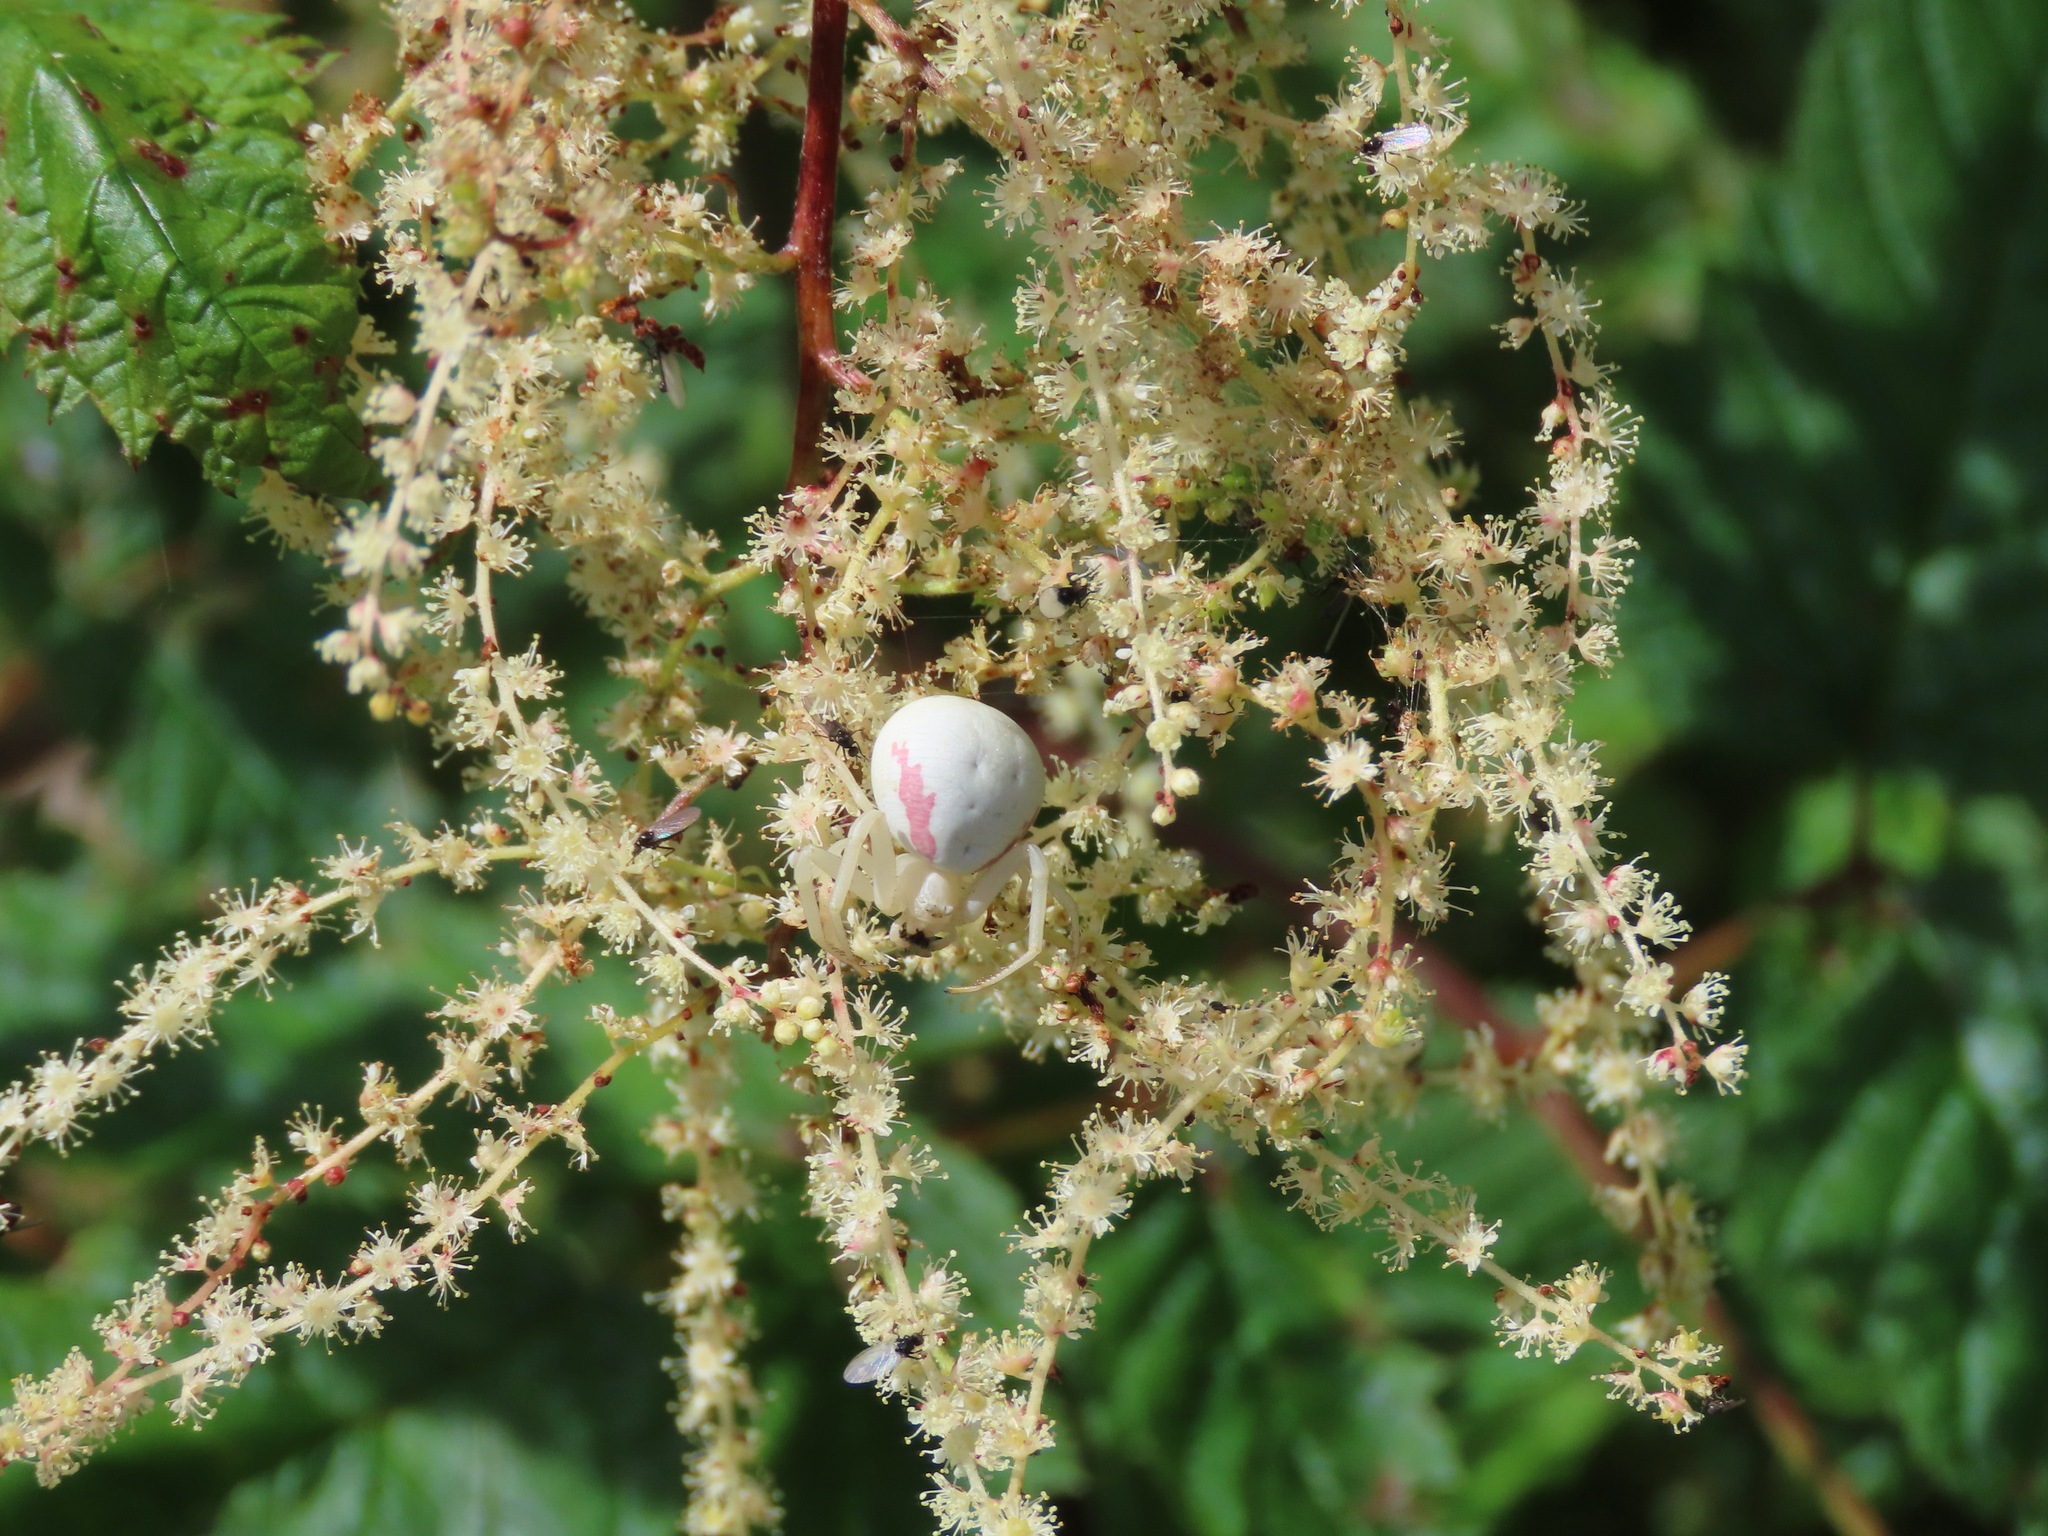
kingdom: Animalia
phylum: Arthropoda
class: Arachnida
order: Araneae
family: Thomisidae
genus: Misumena
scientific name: Misumena vatia
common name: Goldenrod crab spider
